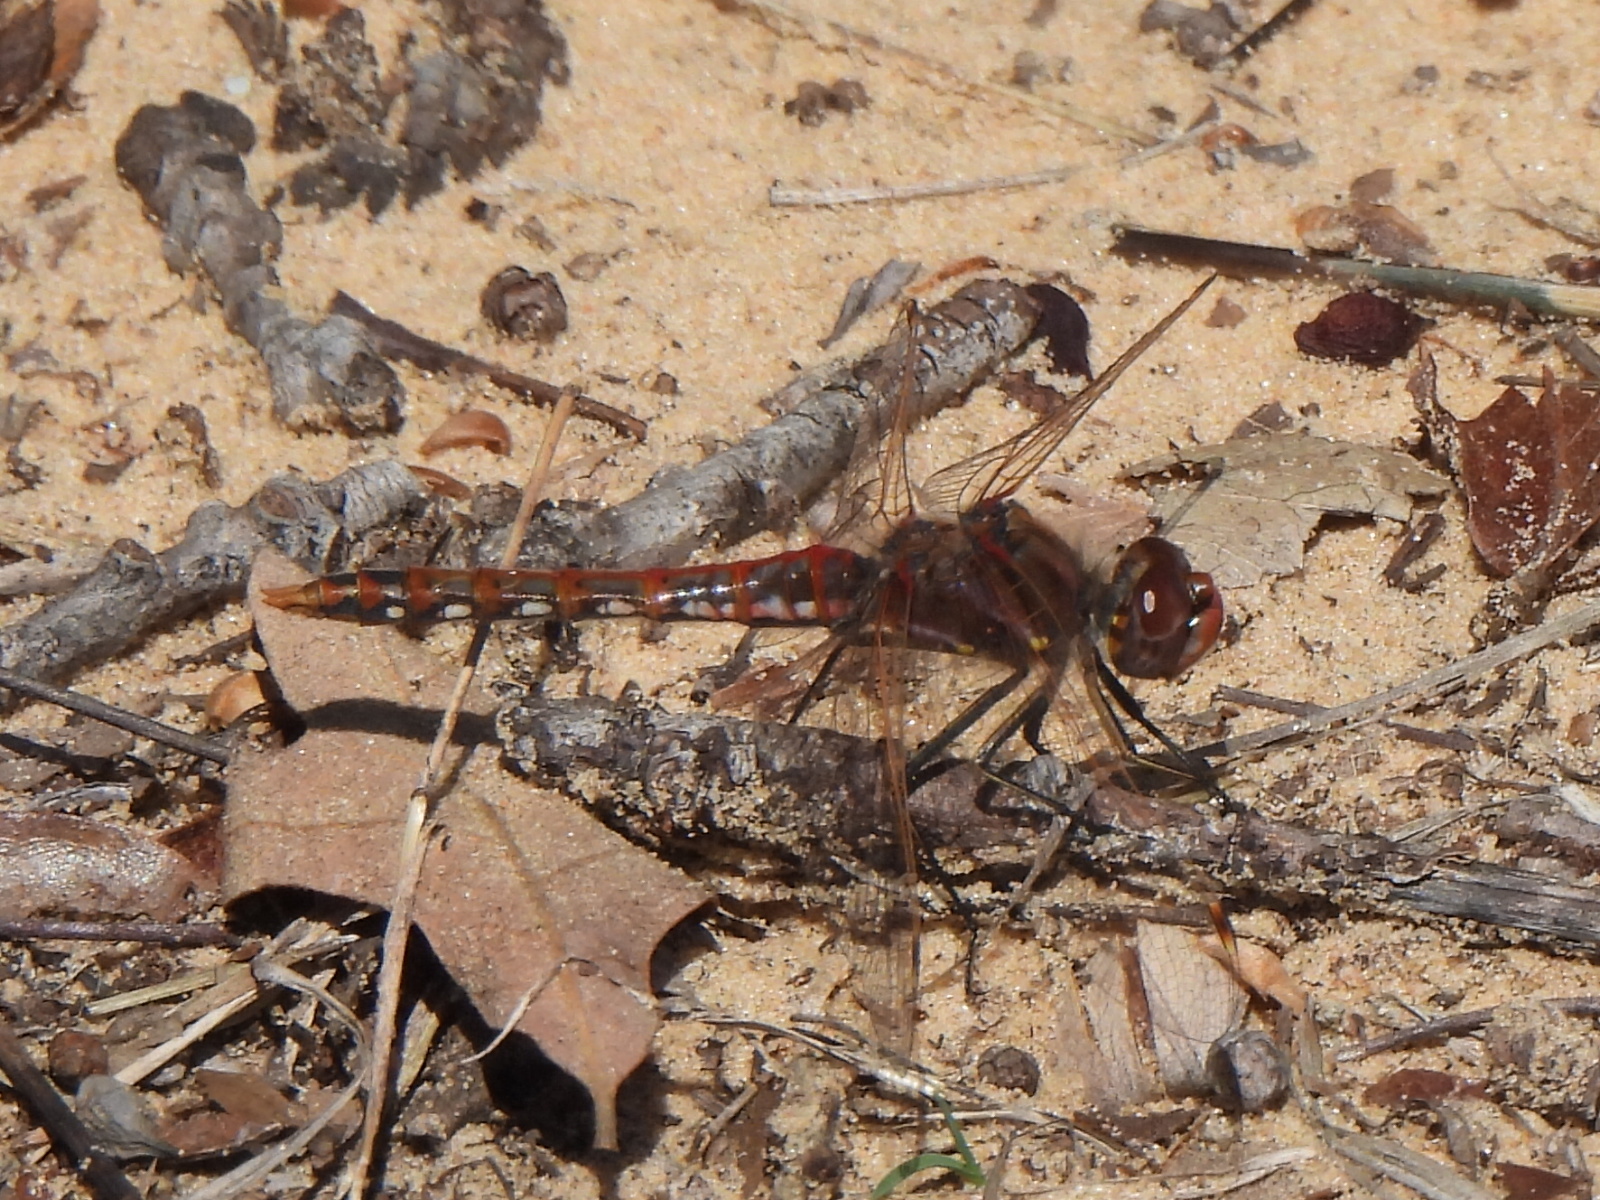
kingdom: Animalia
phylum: Arthropoda
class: Insecta
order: Odonata
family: Libellulidae
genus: Sympetrum
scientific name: Sympetrum corruptum
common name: Variegated meadowhawk
